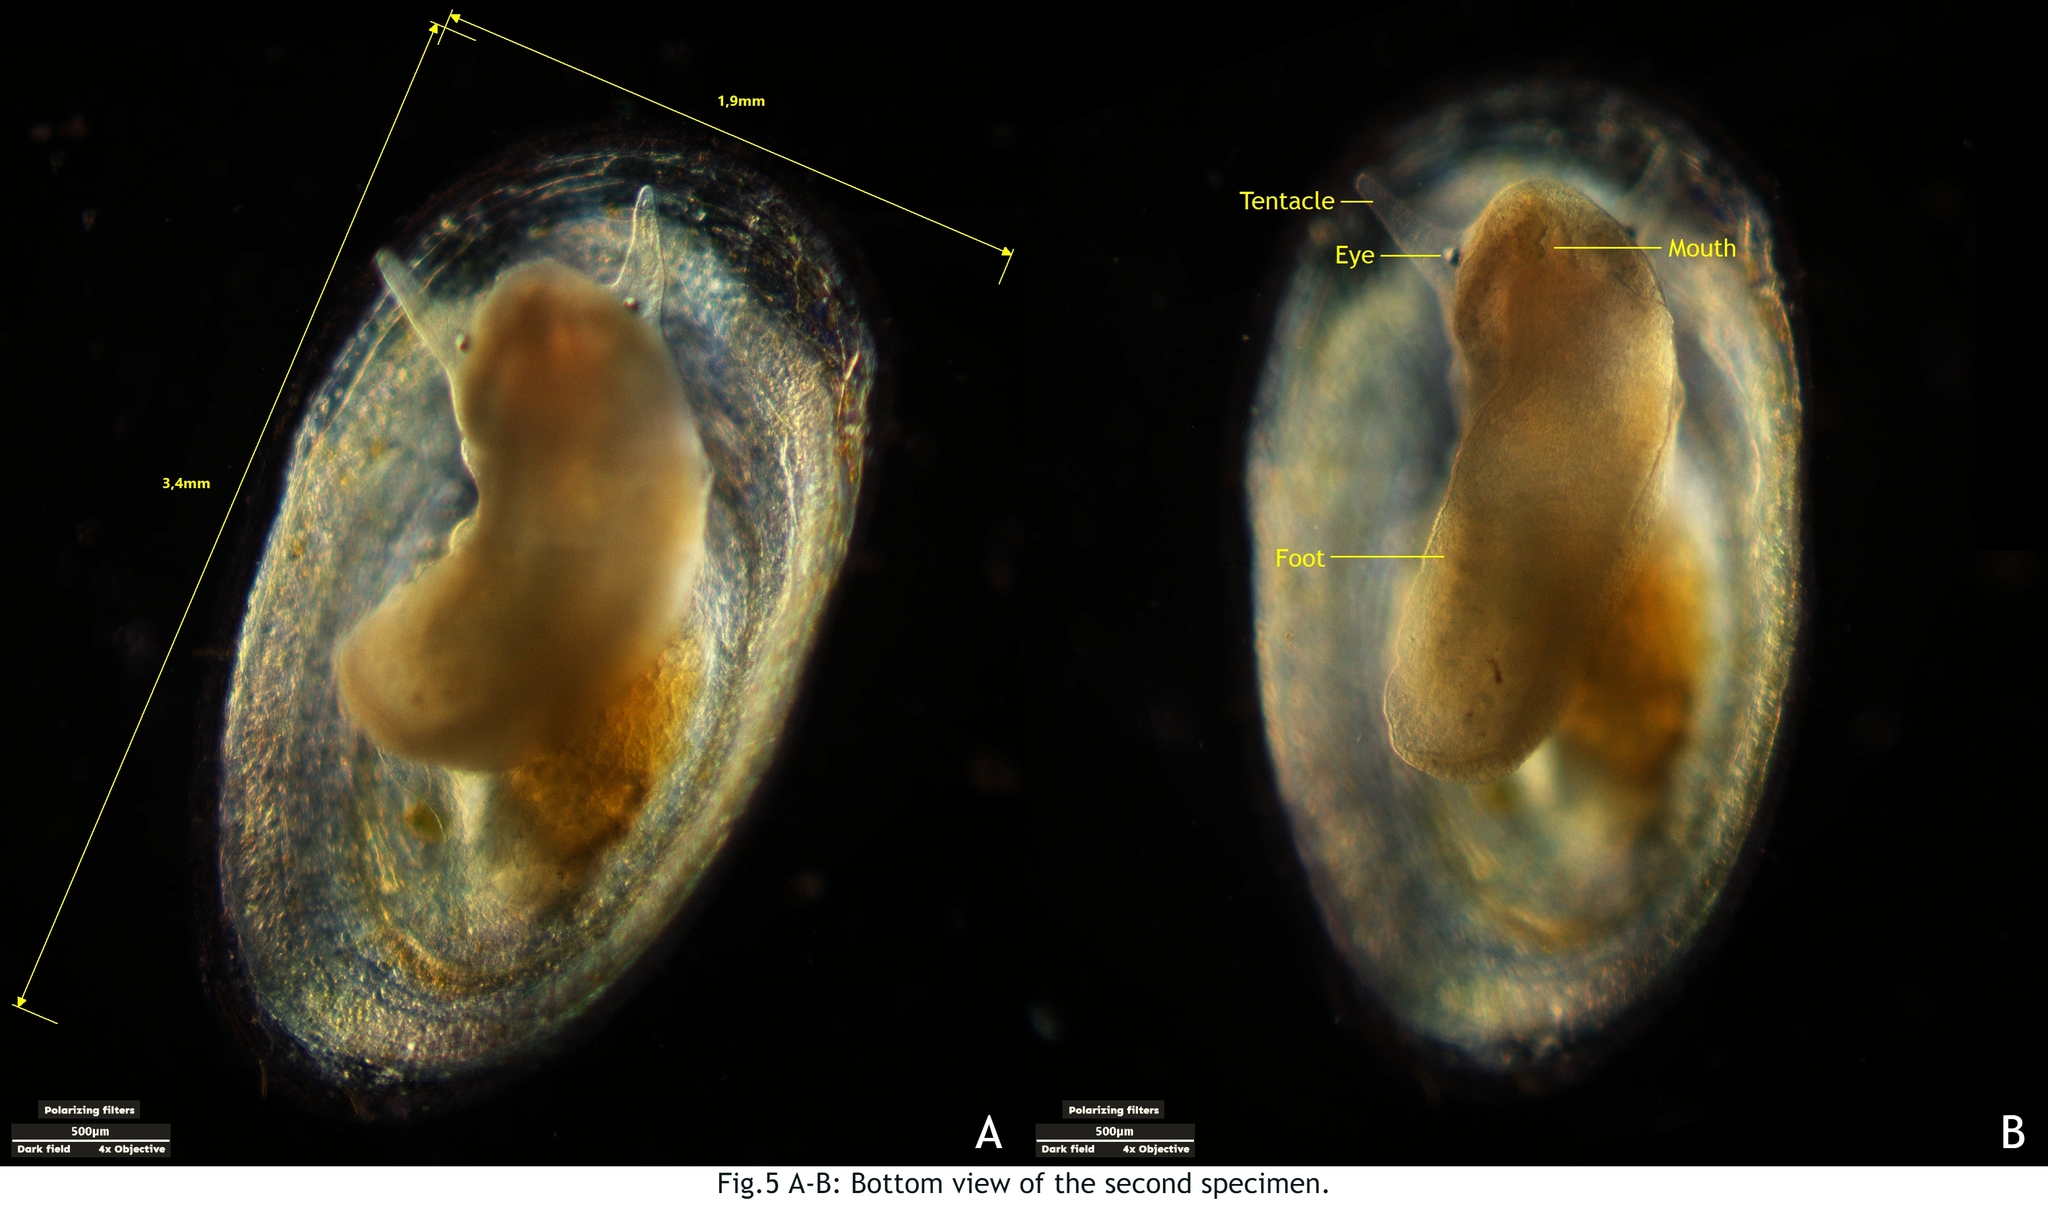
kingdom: Animalia
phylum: Mollusca
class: Gastropoda
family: Acroloxidae
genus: Acroloxus
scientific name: Acroloxus lacustris
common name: Lake limpet
